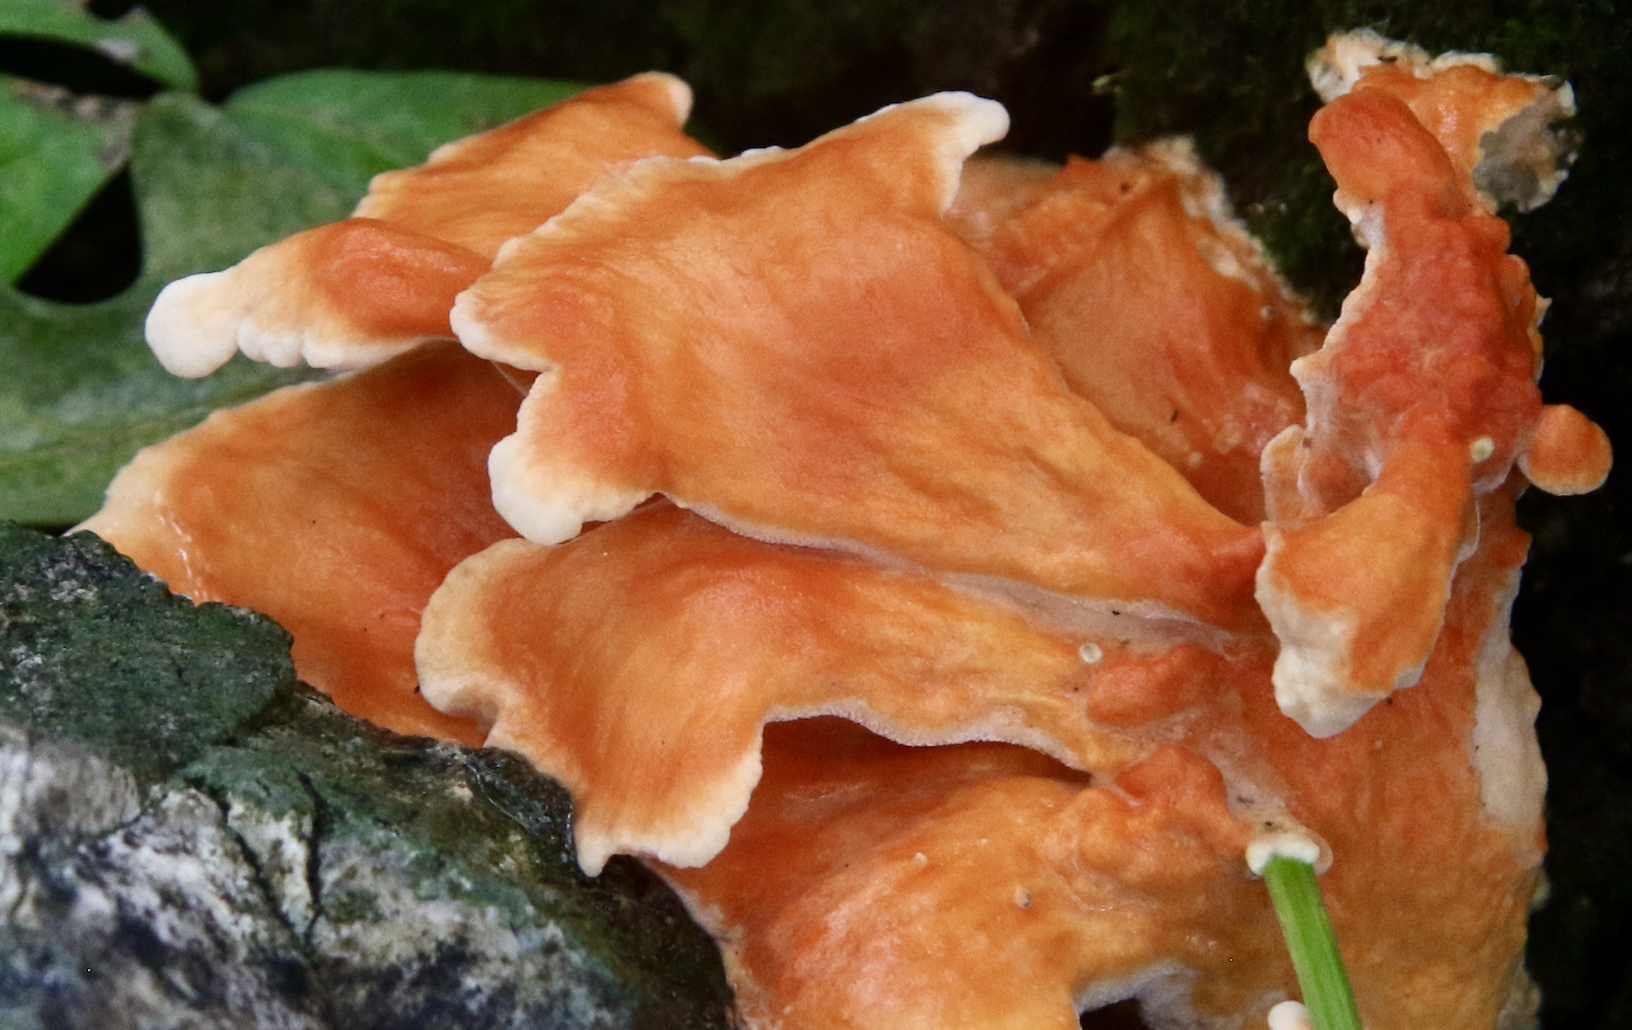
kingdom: Fungi
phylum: Basidiomycota
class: Agaricomycetes
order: Polyporales
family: Laetiporaceae
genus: Laetiporus
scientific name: Laetiporus sulphureus
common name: Chicken of the woods
